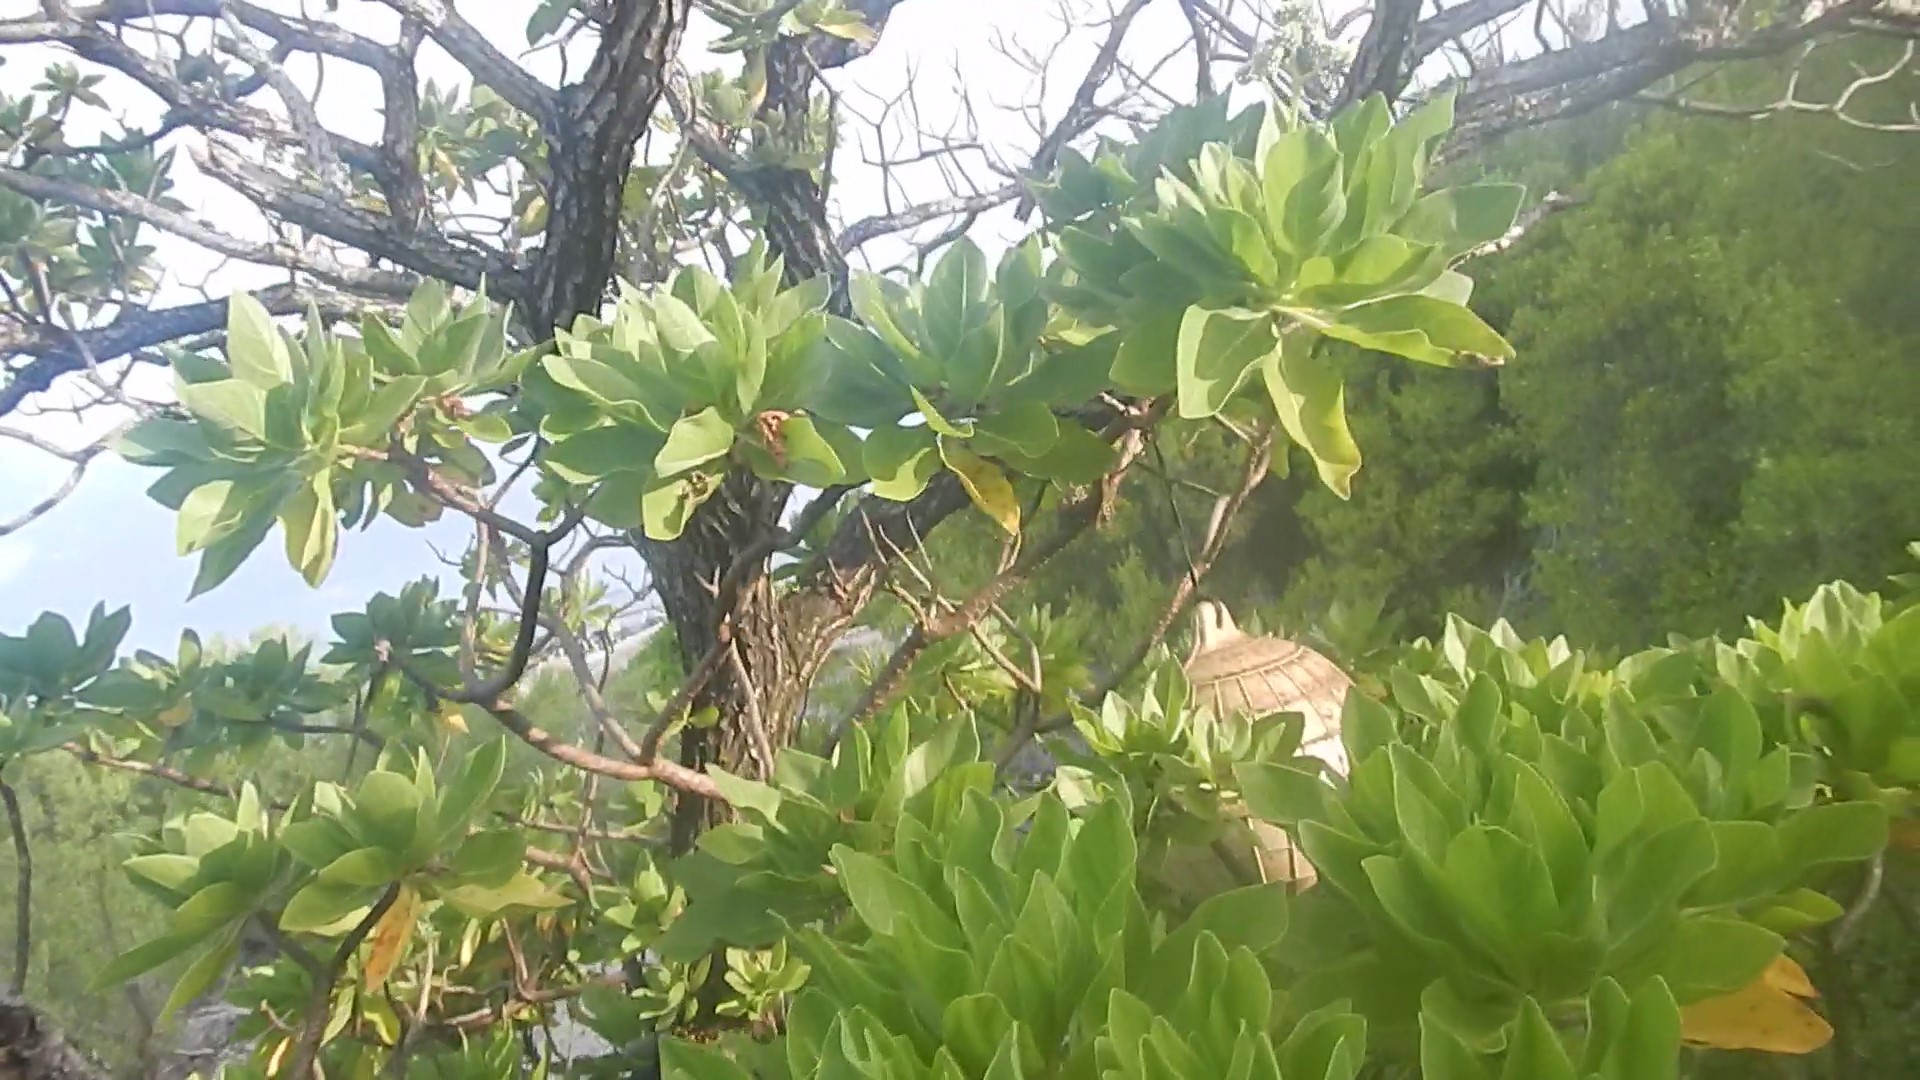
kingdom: Plantae
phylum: Tracheophyta
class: Magnoliopsida
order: Boraginales
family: Heliotropiaceae
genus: Heliotropium
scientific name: Heliotropium velutinum
